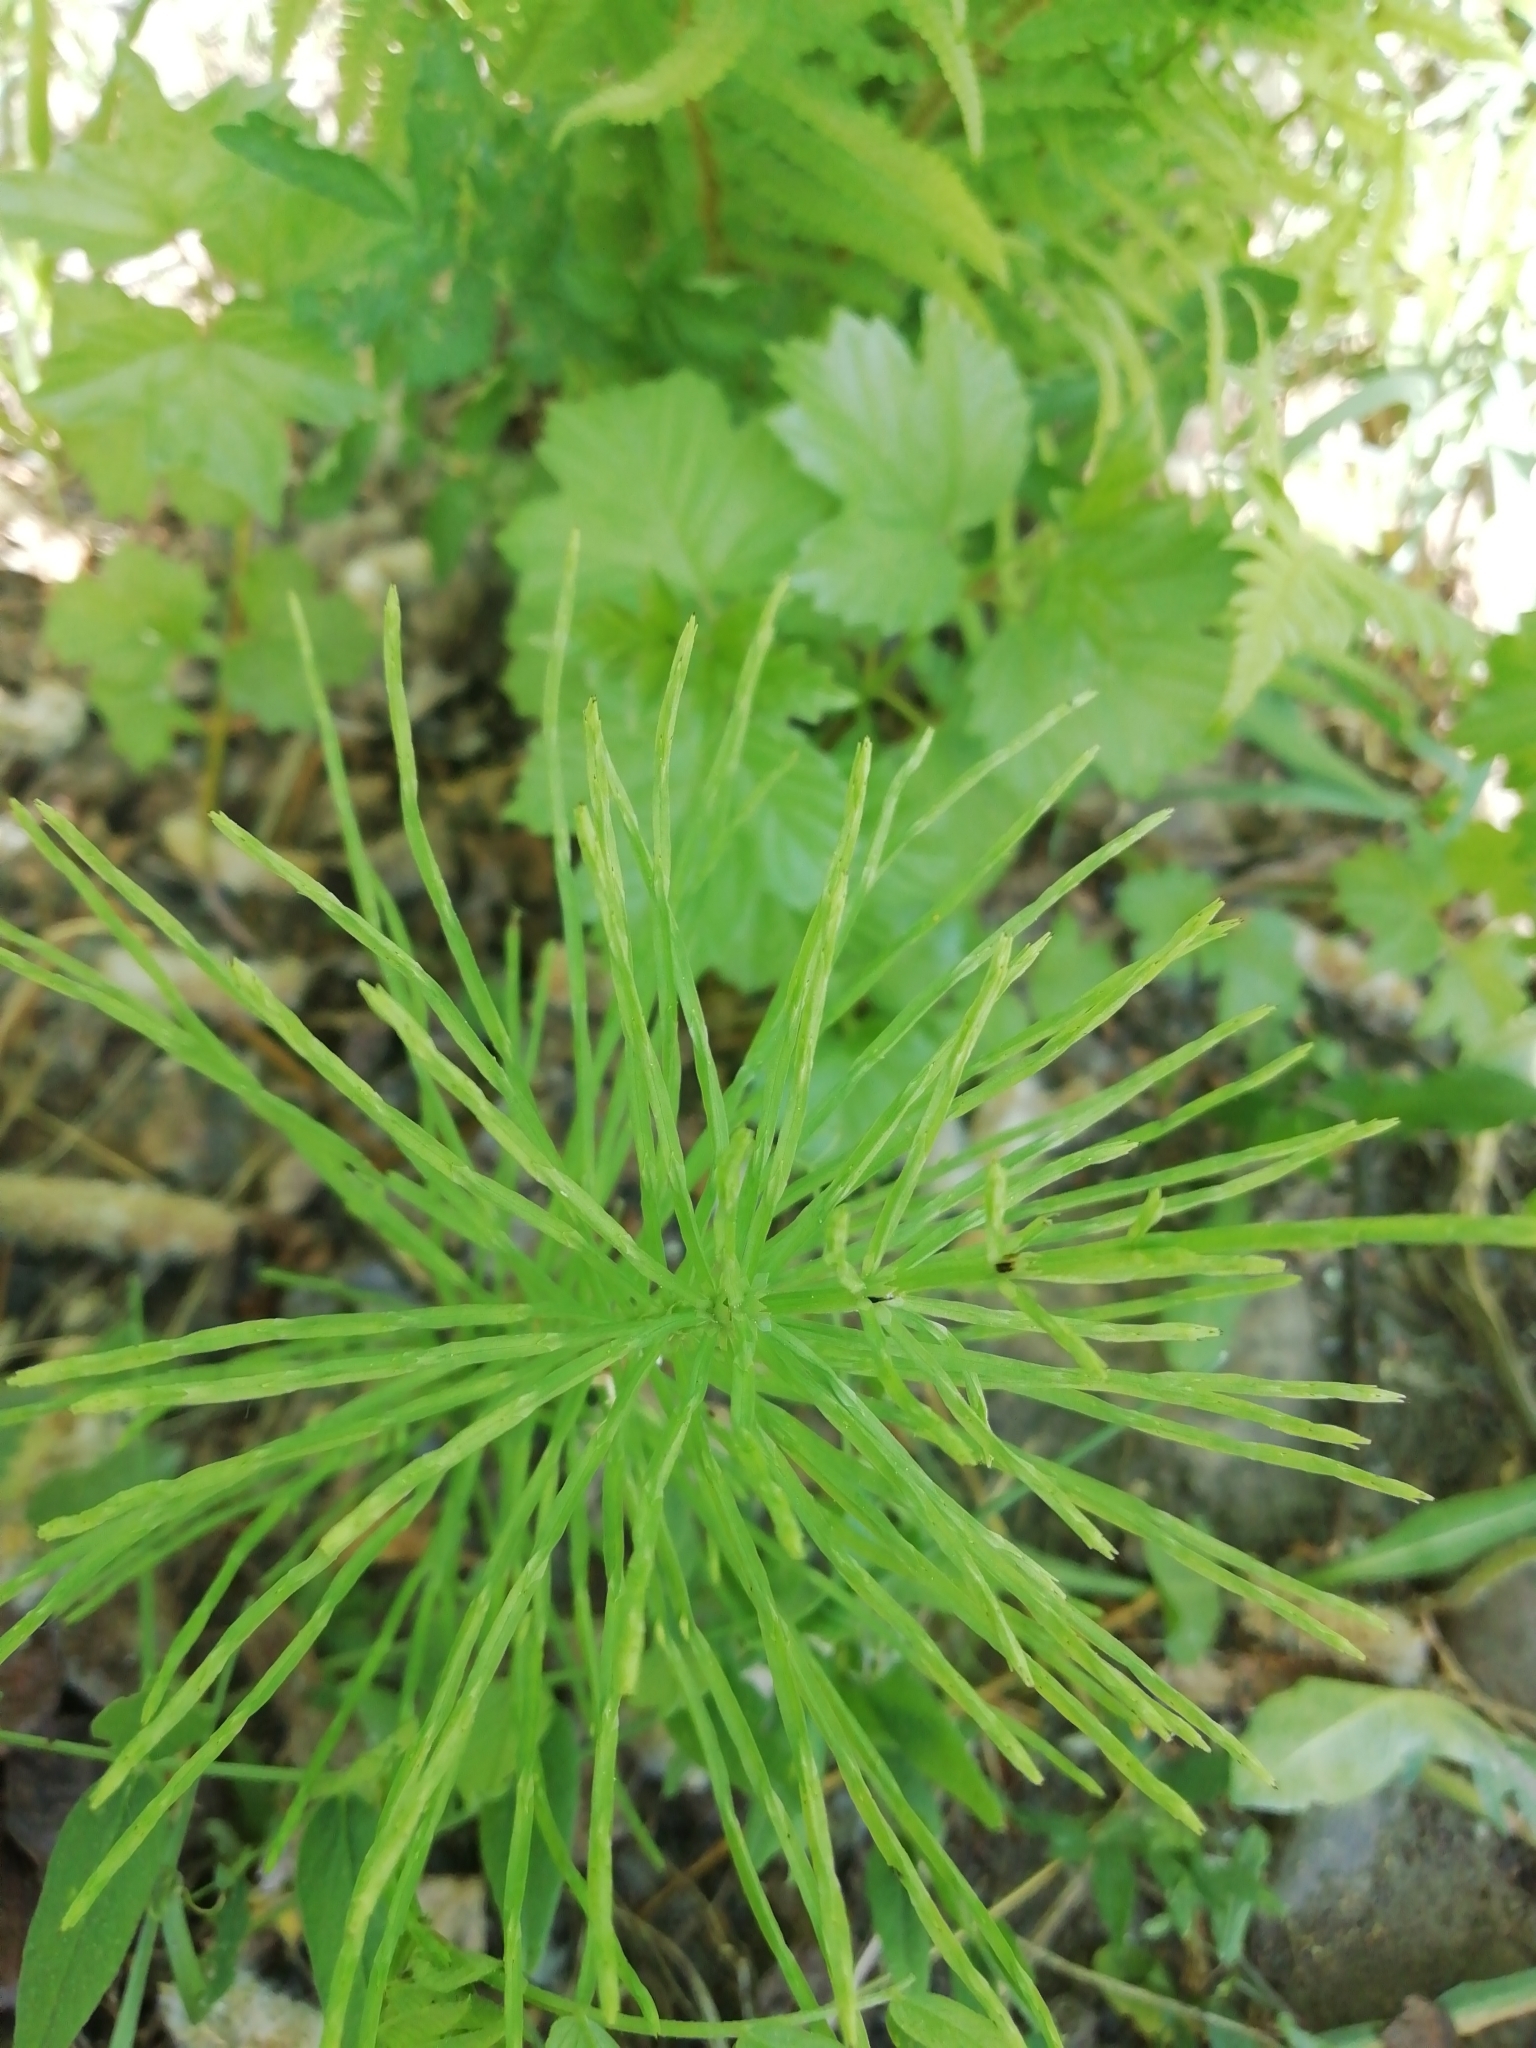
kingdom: Plantae
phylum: Tracheophyta
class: Polypodiopsida
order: Equisetales
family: Equisetaceae
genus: Equisetum
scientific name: Equisetum arvense
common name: Field horsetail
